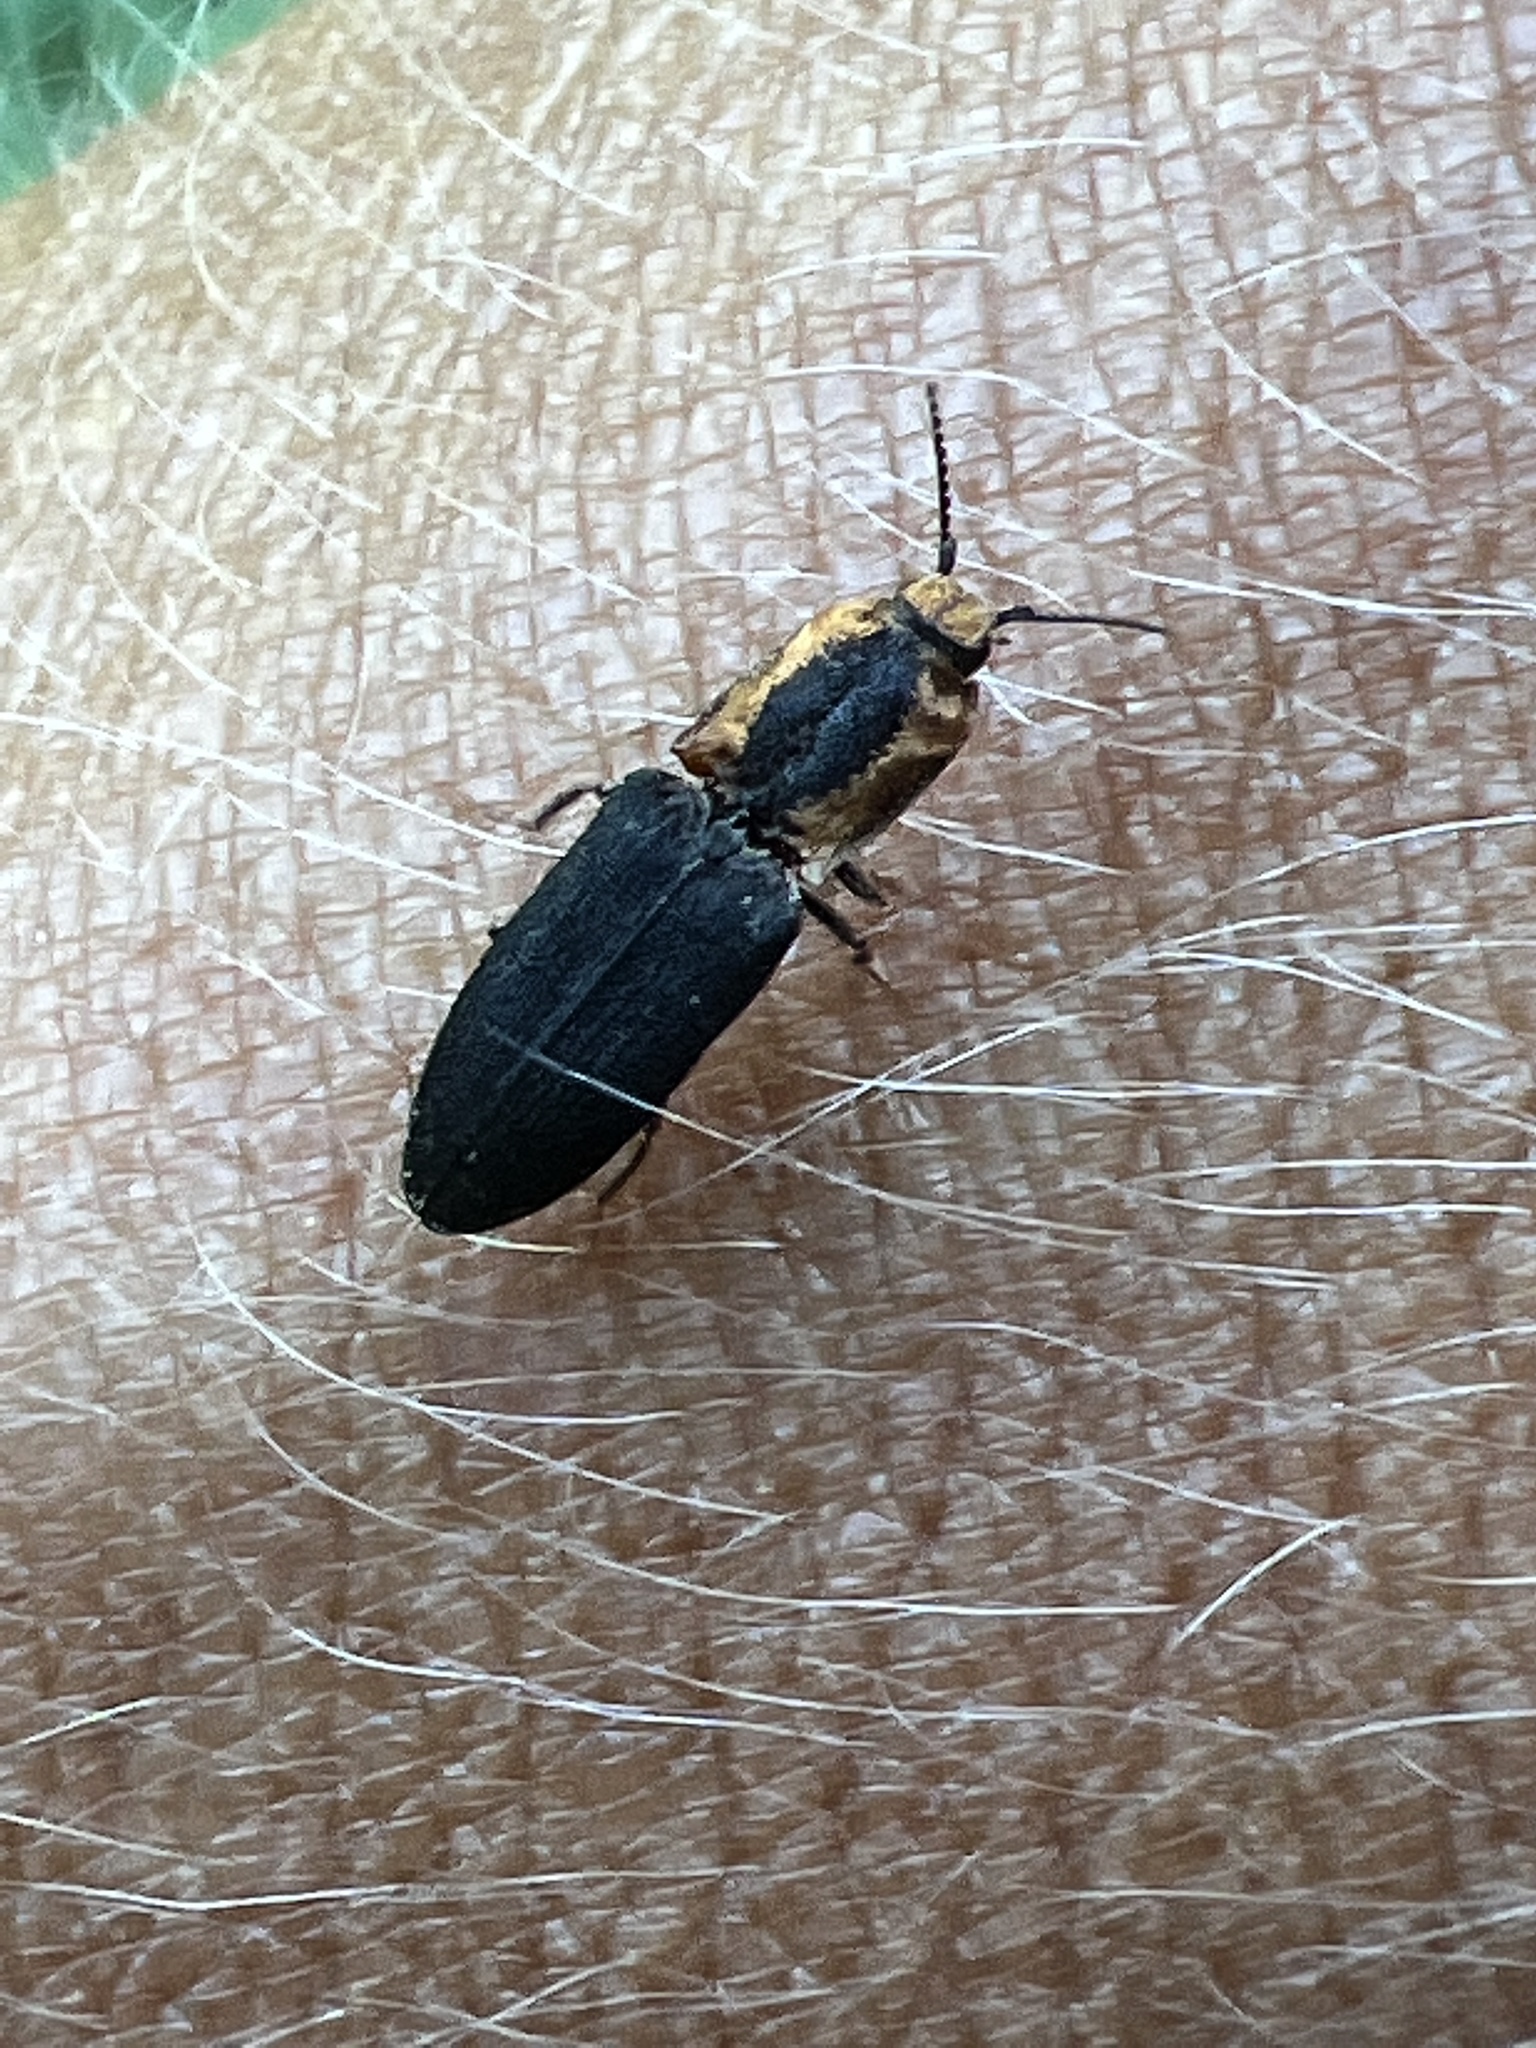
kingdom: Animalia
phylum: Arthropoda
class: Insecta
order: Coleoptera
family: Elateridae
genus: Lacon
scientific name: Lacon discoideus
